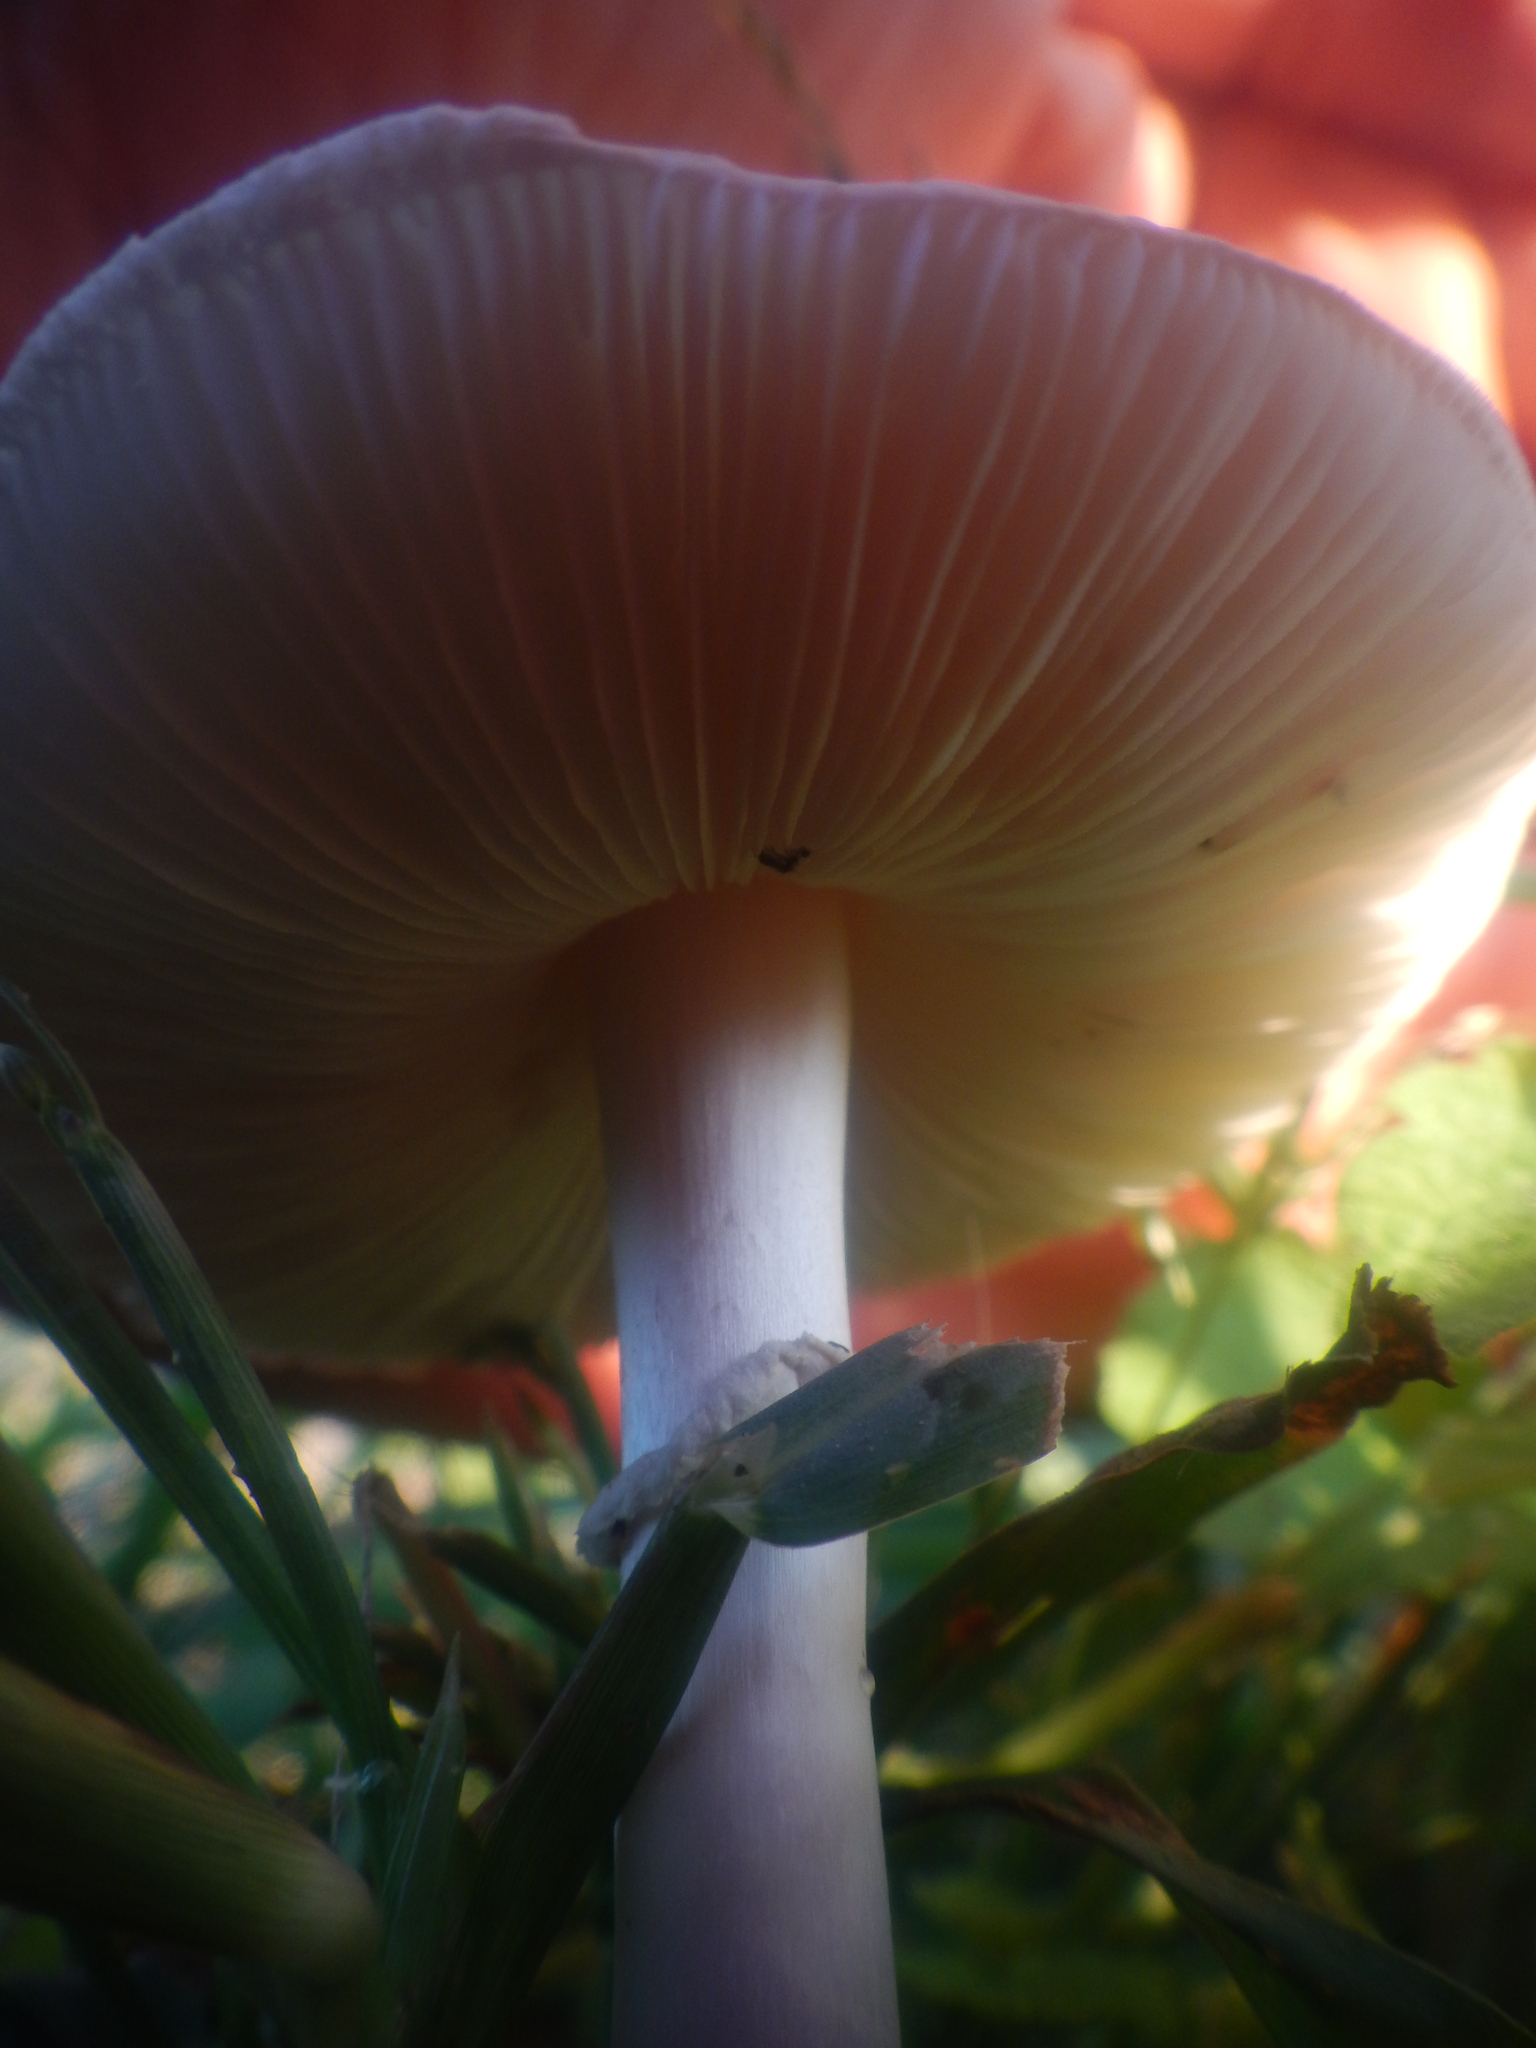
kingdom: Fungi
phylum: Basidiomycota
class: Agaricomycetes
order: Agaricales
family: Agaricaceae
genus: Leucoagaricus
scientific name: Leucoagaricus leucothites
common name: White dapperling
